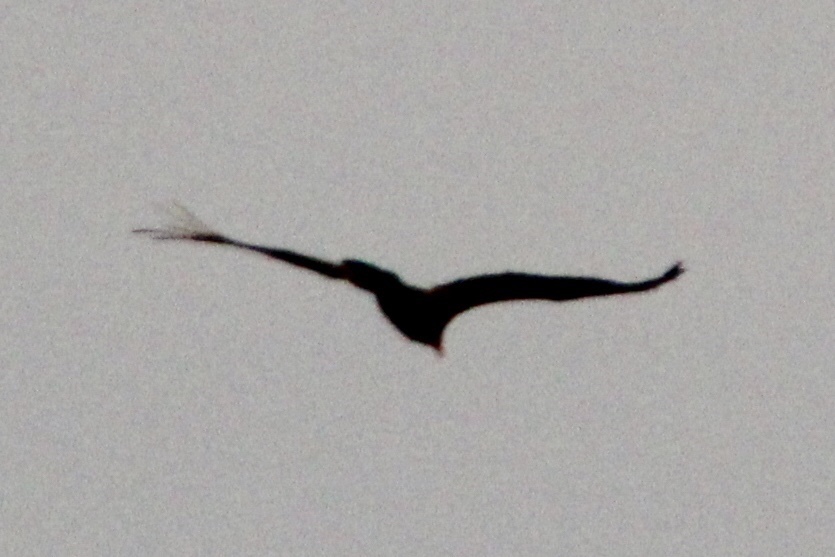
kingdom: Animalia
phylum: Chordata
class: Aves
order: Accipitriformes
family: Cathartidae
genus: Cathartes
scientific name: Cathartes aura
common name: Turkey vulture
